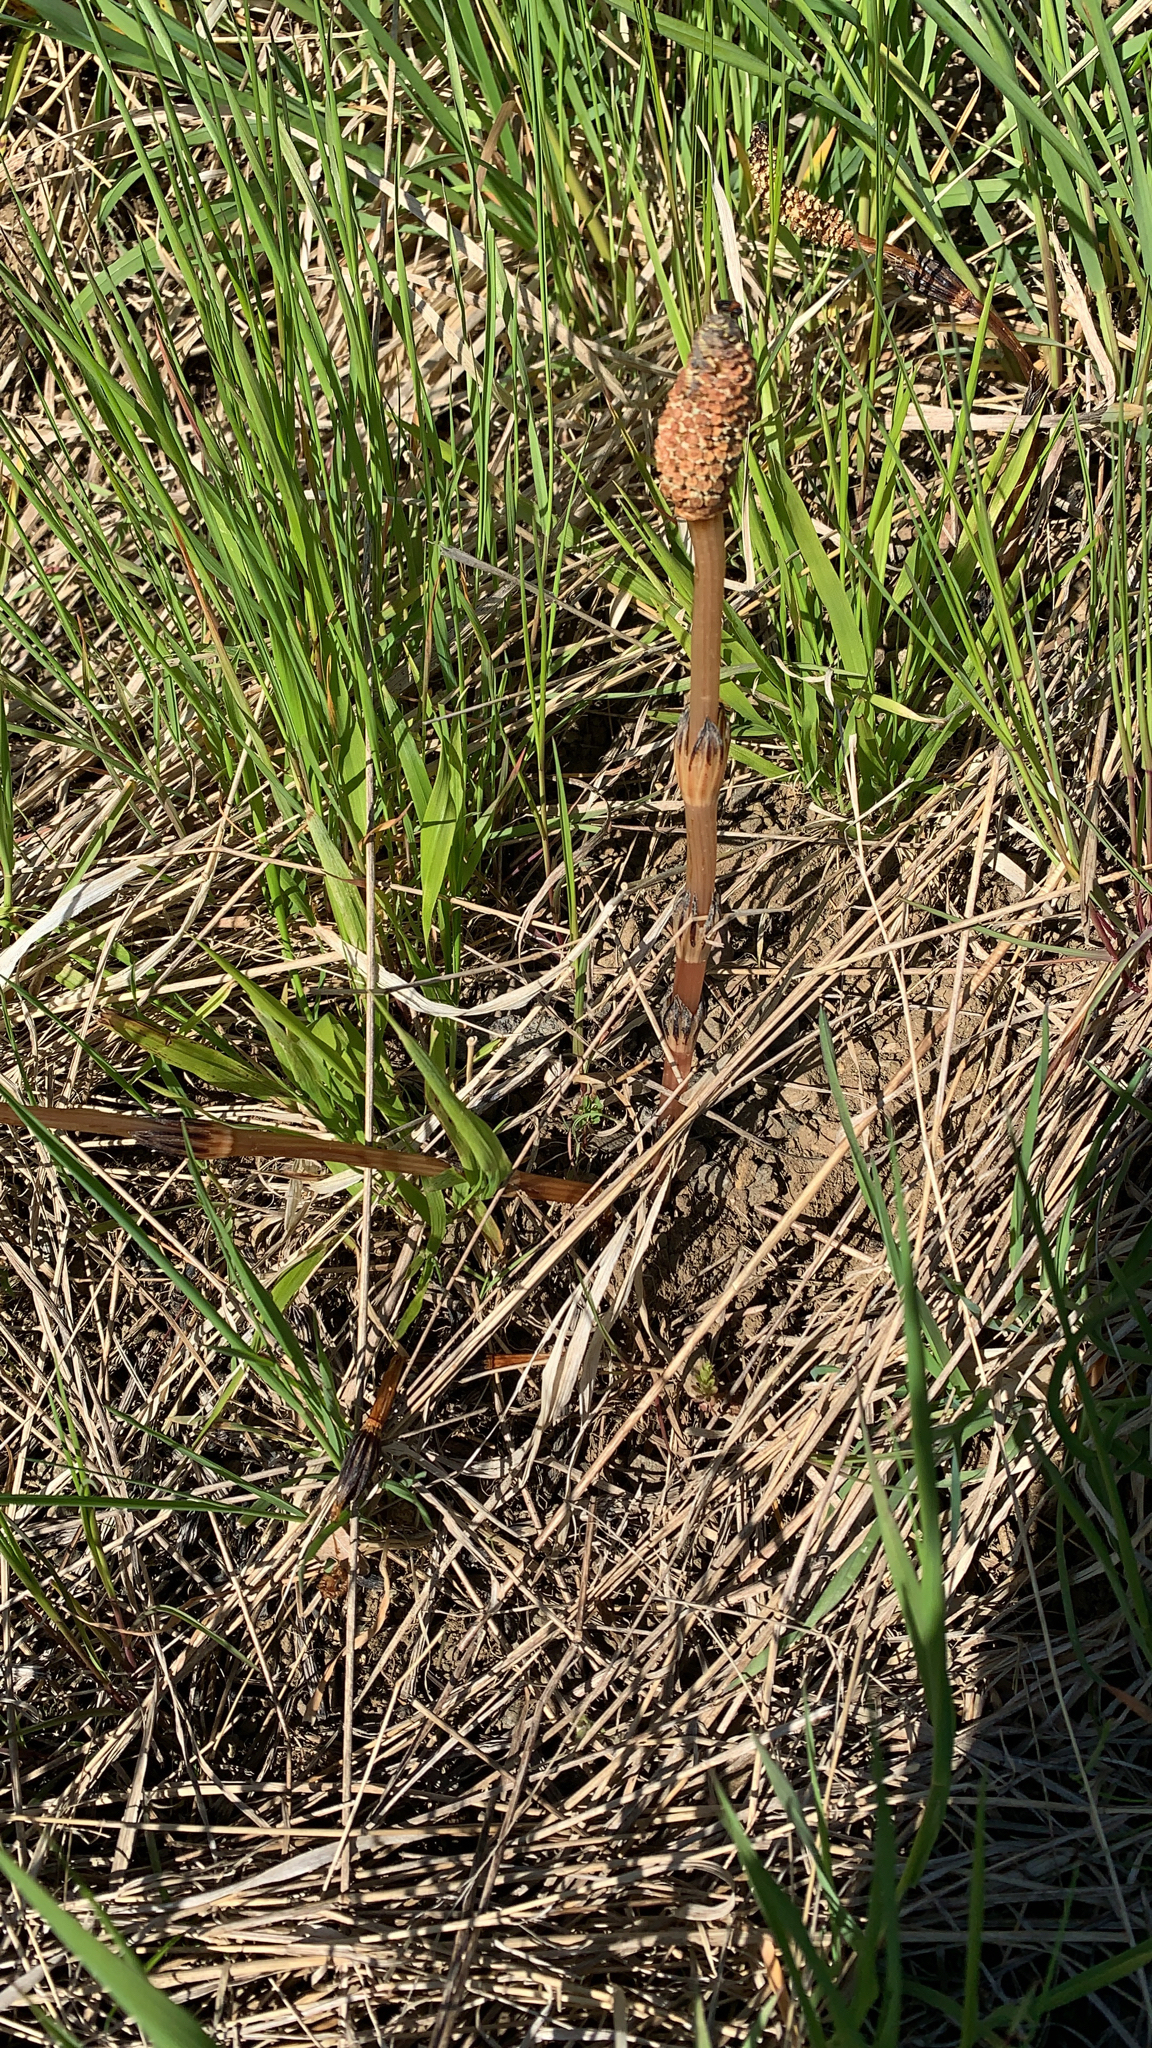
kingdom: Plantae
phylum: Tracheophyta
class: Polypodiopsida
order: Equisetales
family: Equisetaceae
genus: Equisetum
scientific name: Equisetum arvense
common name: Field horsetail
